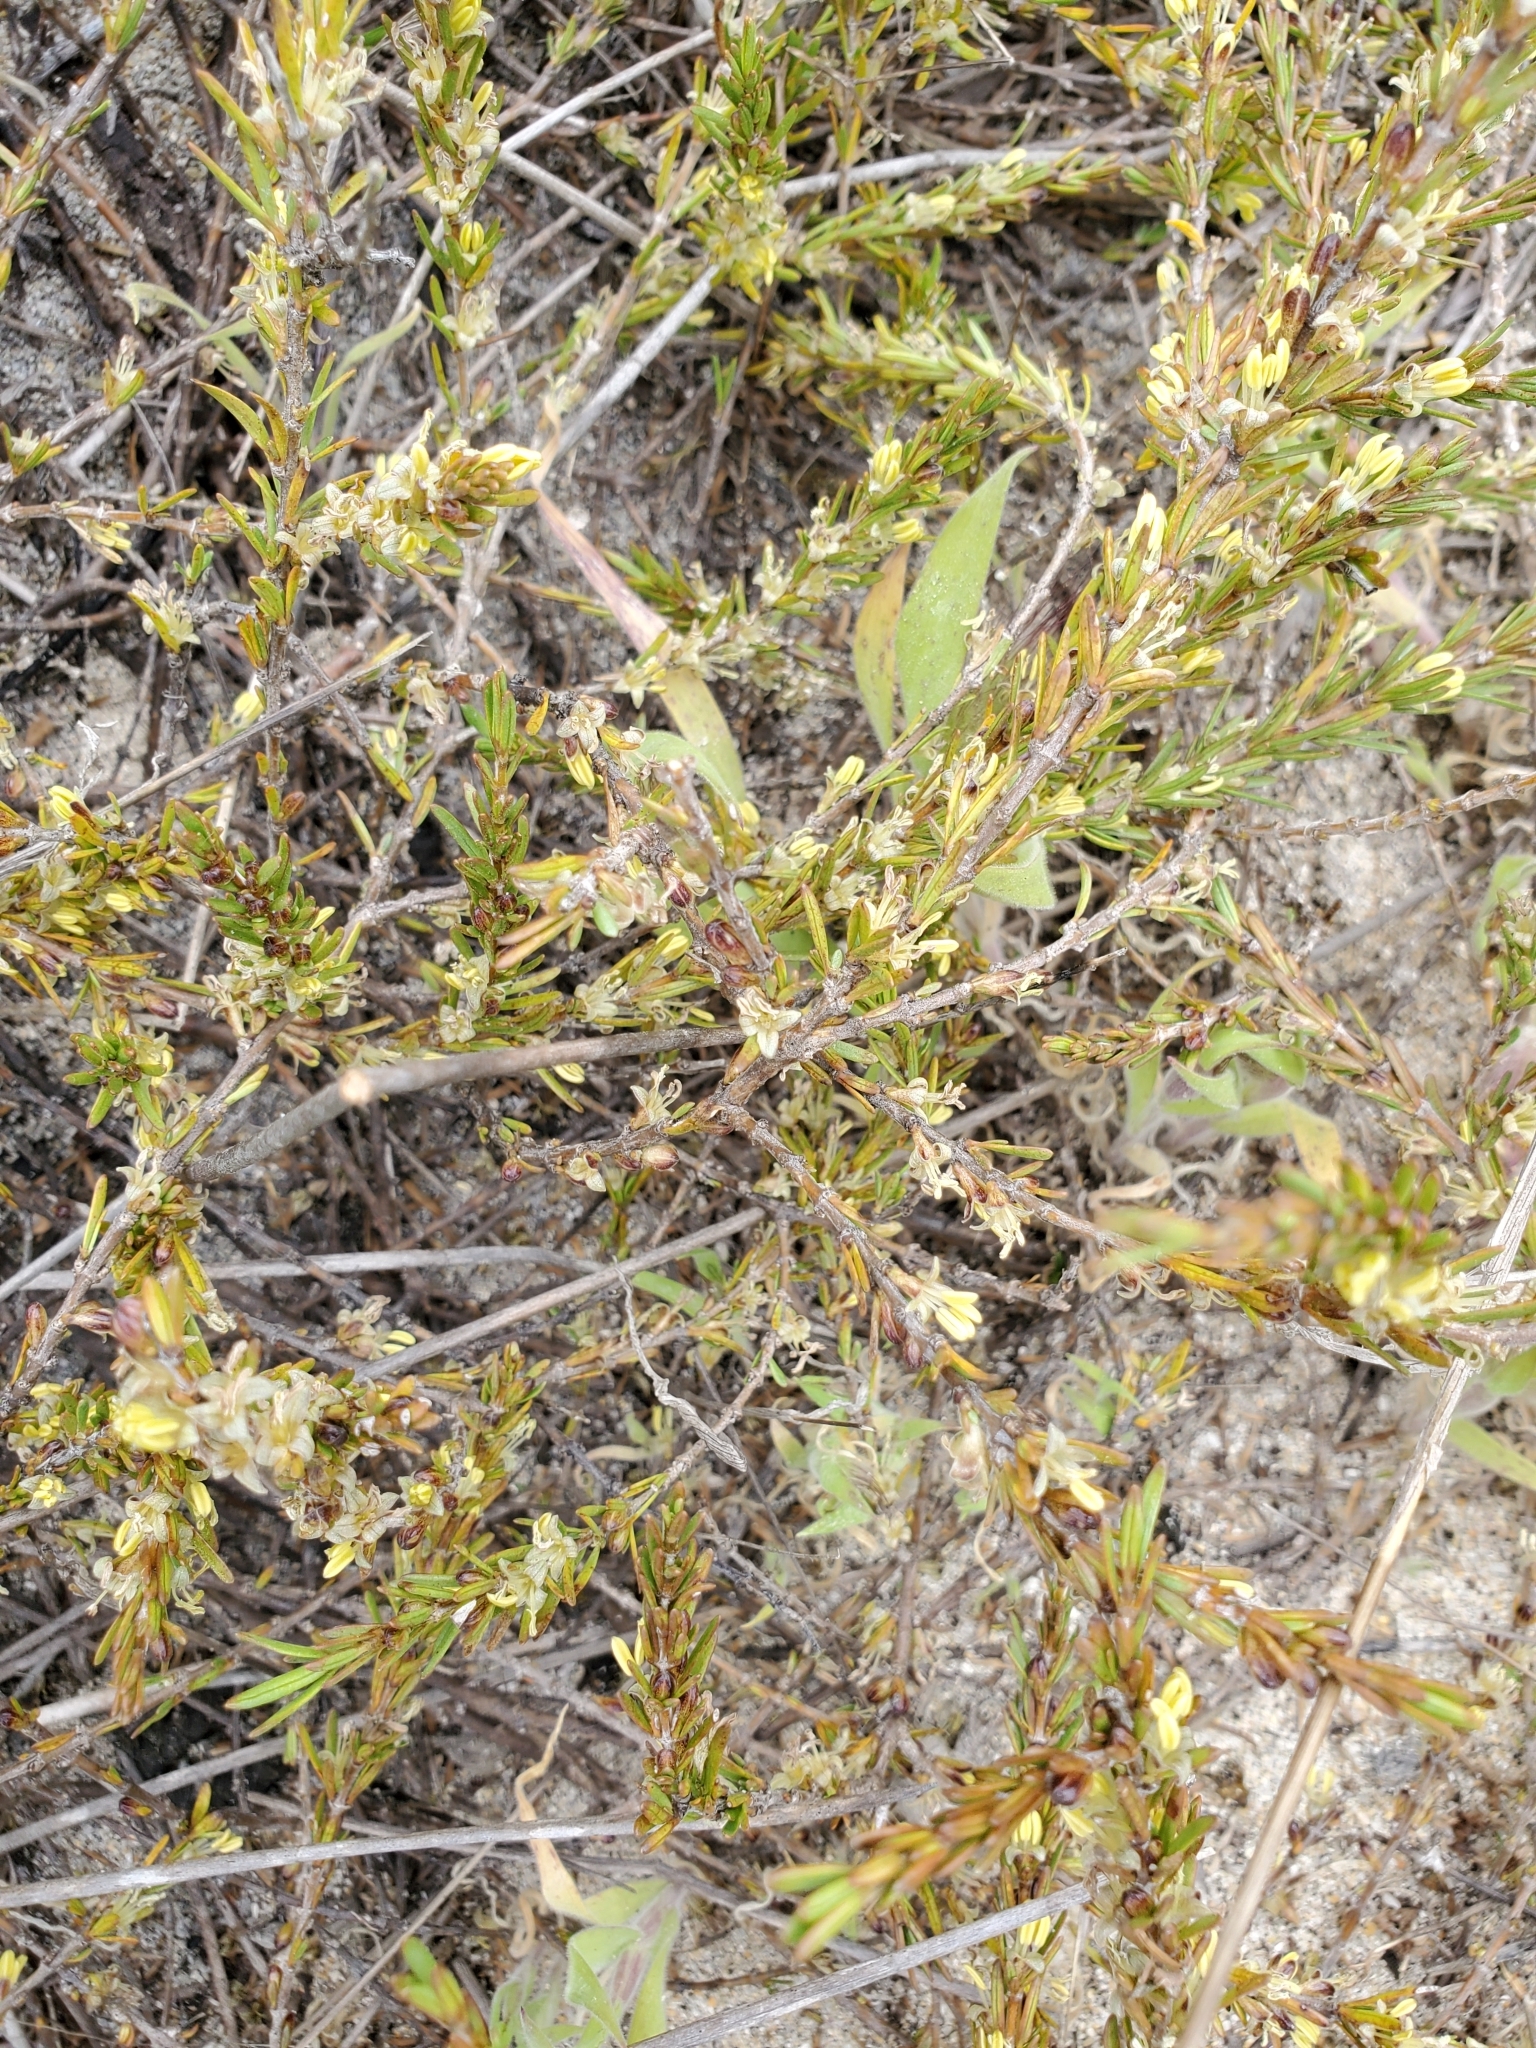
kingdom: Plantae
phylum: Tracheophyta
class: Magnoliopsida
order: Gentianales
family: Rubiaceae
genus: Coprosma
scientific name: Coprosma acerosa
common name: Sand coprosma
